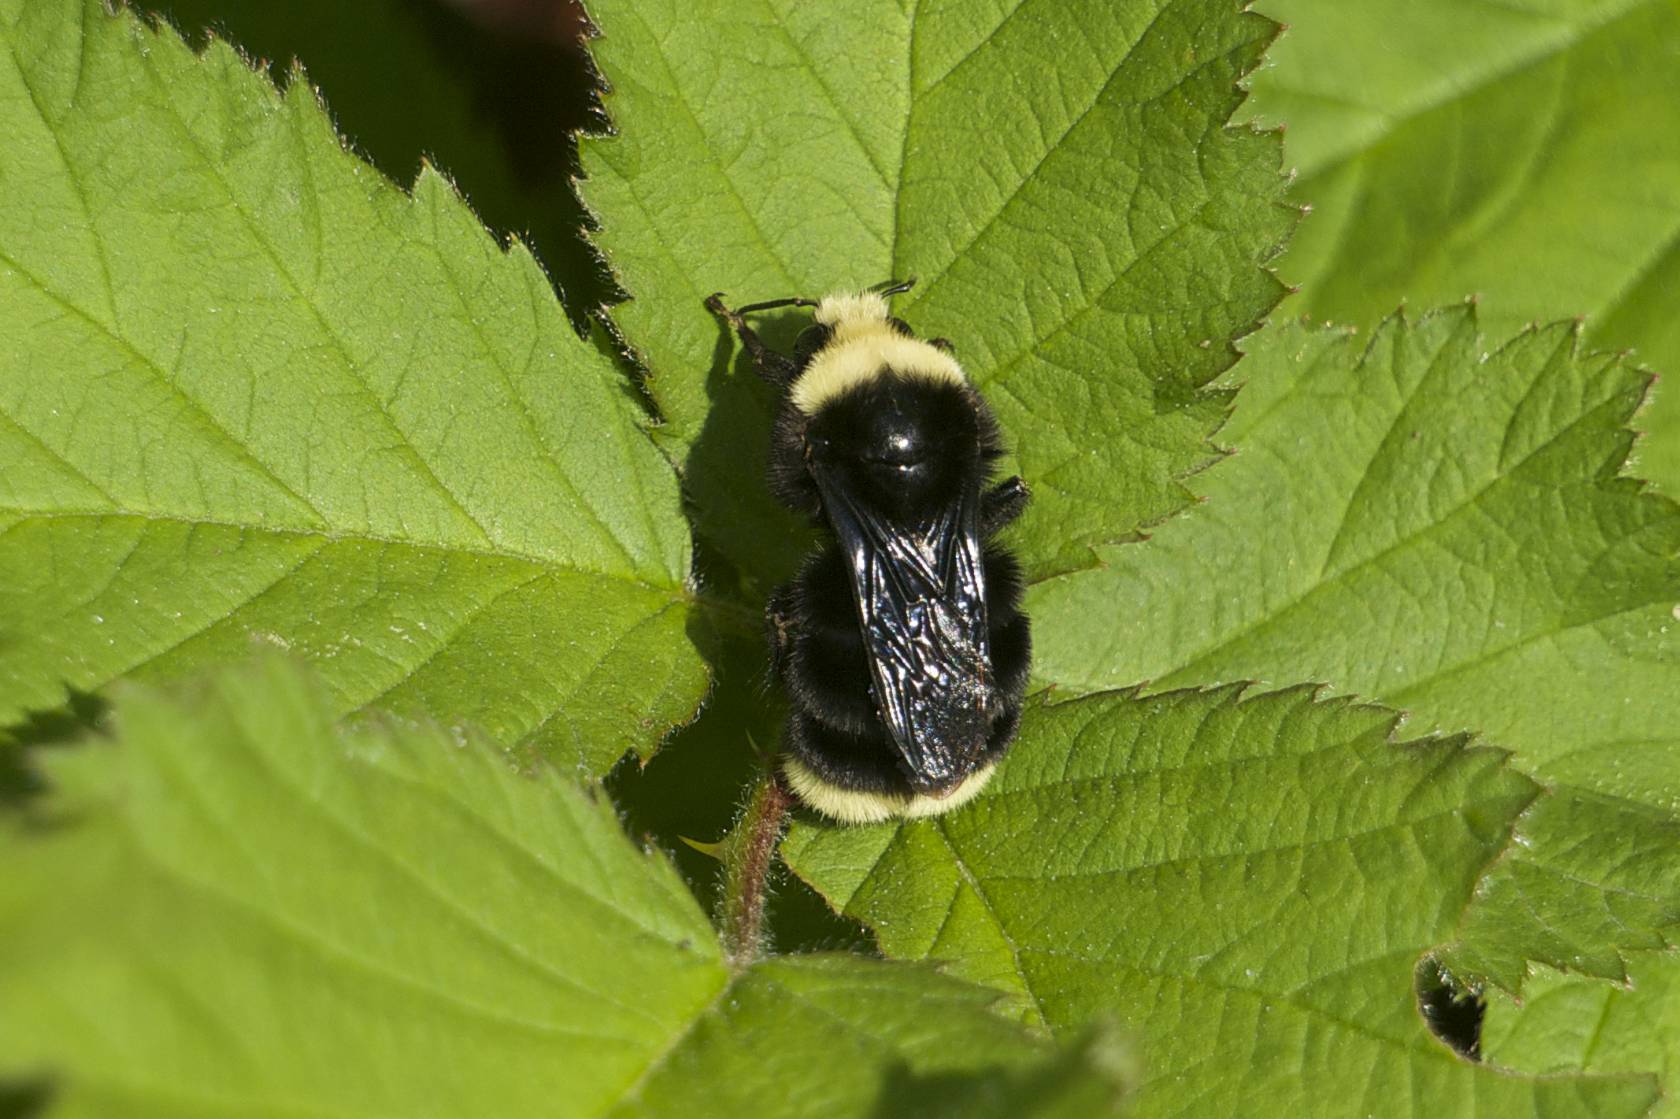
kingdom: Animalia
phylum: Arthropoda
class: Insecta
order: Hymenoptera
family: Apidae
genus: Bombus
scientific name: Bombus vosnesenskii
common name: Vosnesensky bumble bee
